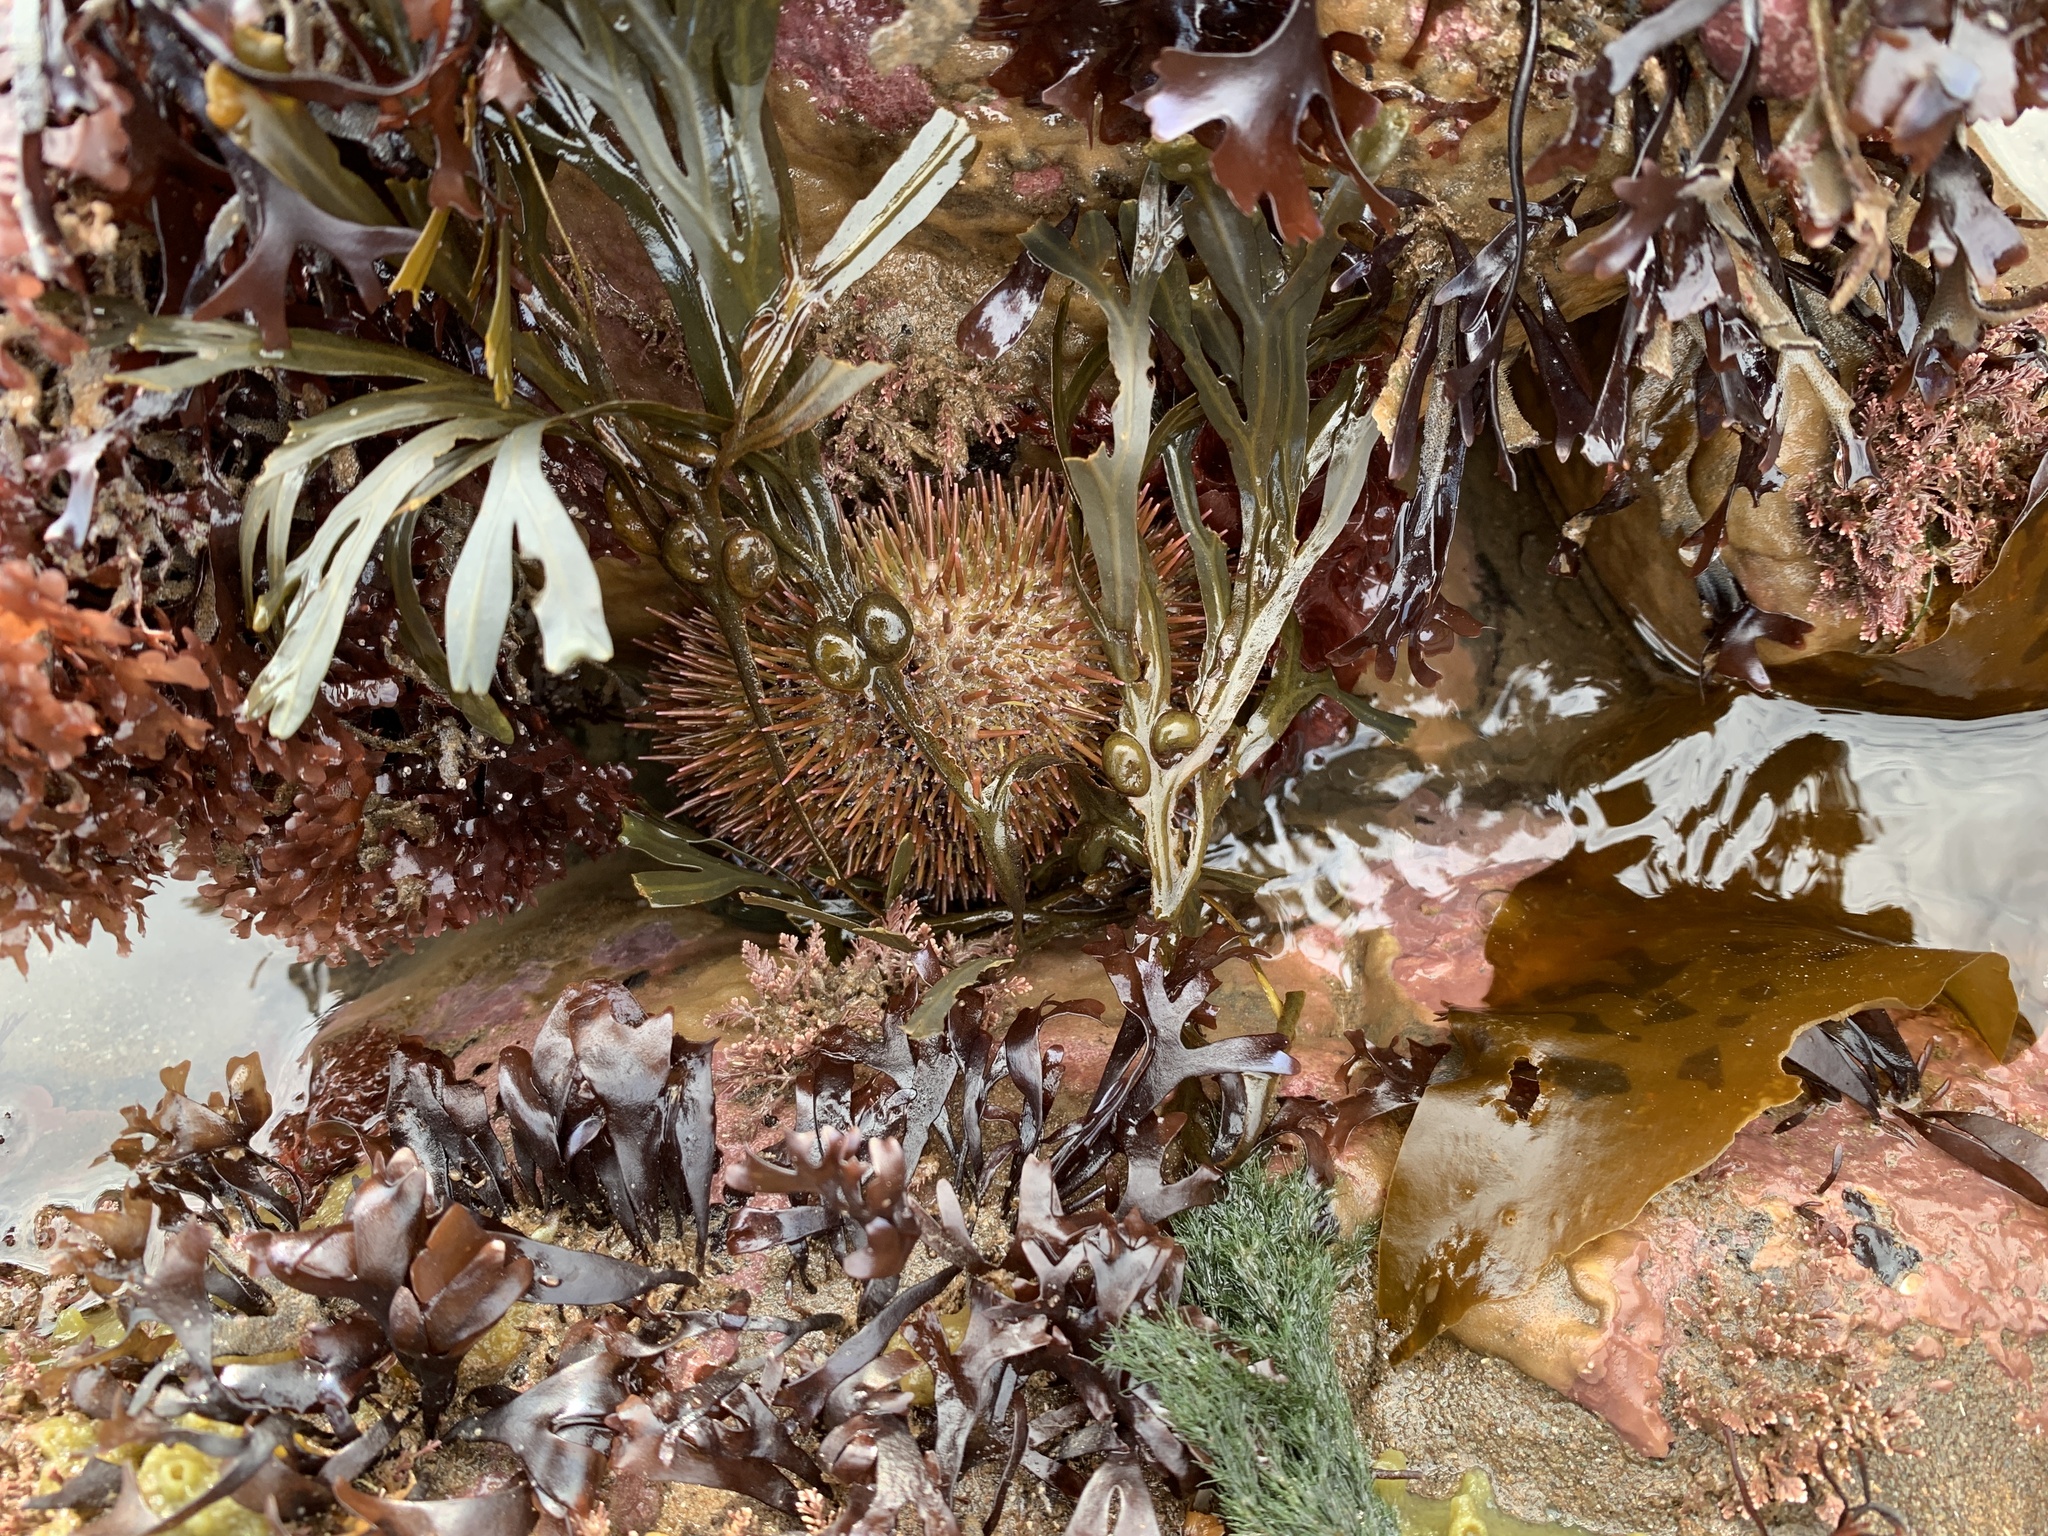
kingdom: Animalia
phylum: Echinodermata
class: Echinoidea
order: Camarodonta
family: Strongylocentrotidae
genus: Strongylocentrotus
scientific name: Strongylocentrotus droebachiensis
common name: Northern sea urchin
